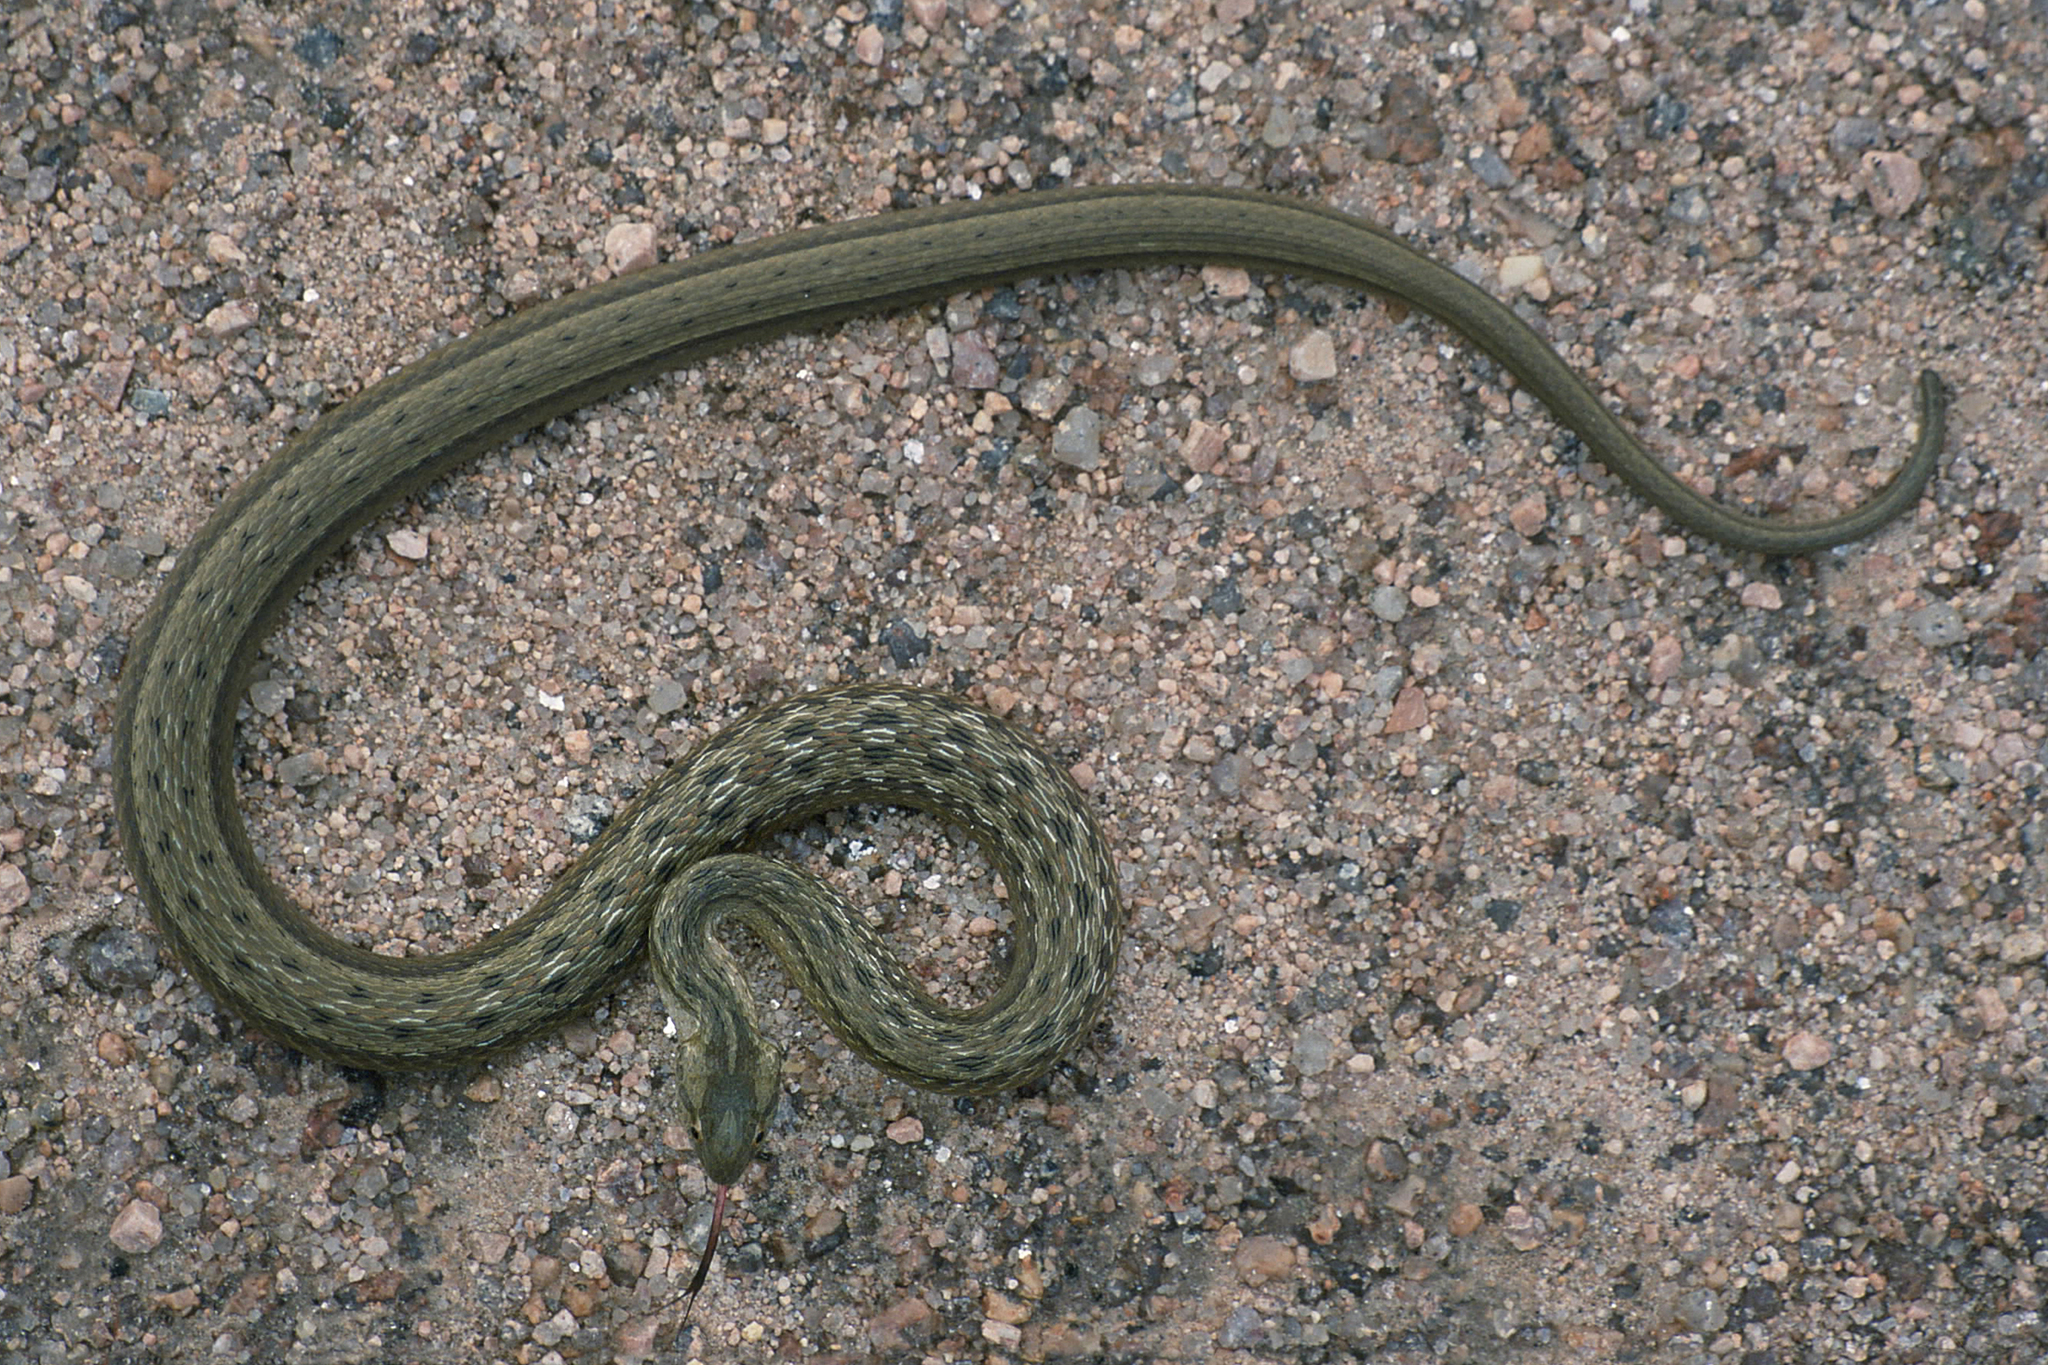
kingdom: Animalia
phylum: Chordata
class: Squamata
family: Colubridae
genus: Dryophylax
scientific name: Dryophylax
